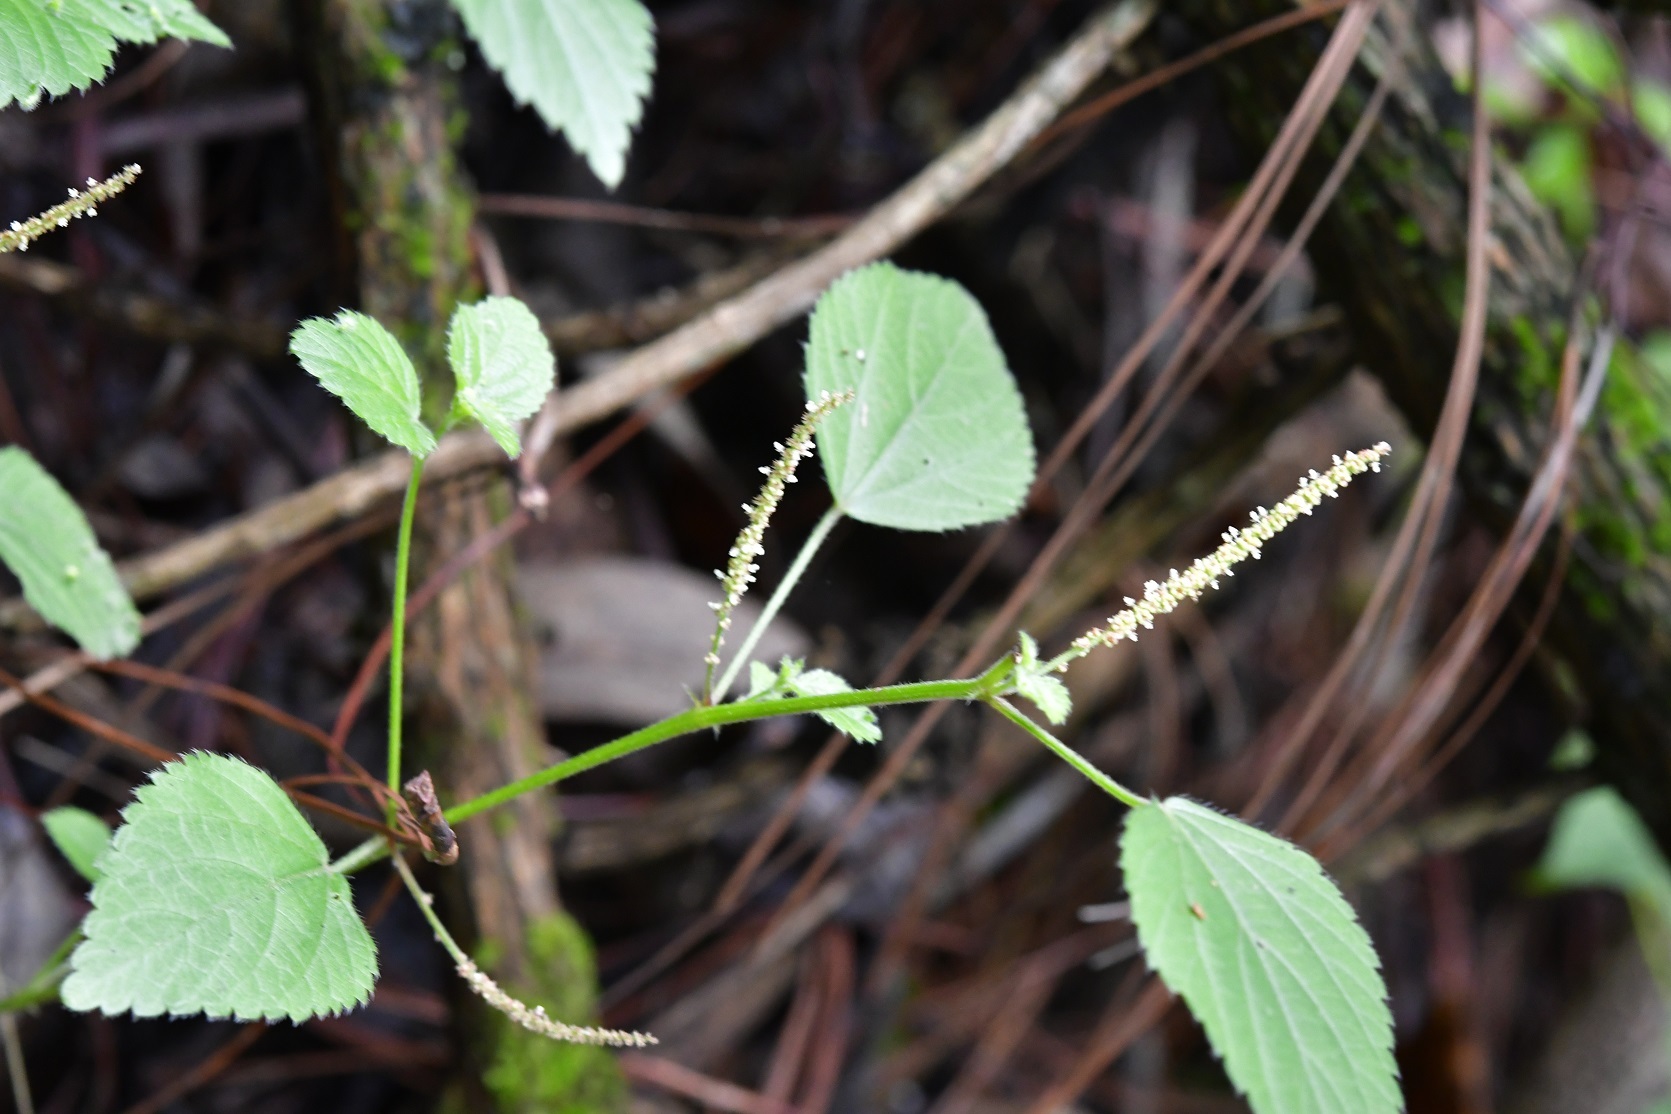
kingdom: Plantae
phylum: Tracheophyta
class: Magnoliopsida
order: Malpighiales
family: Euphorbiaceae
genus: Acalypha
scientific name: Acalypha phleoides
